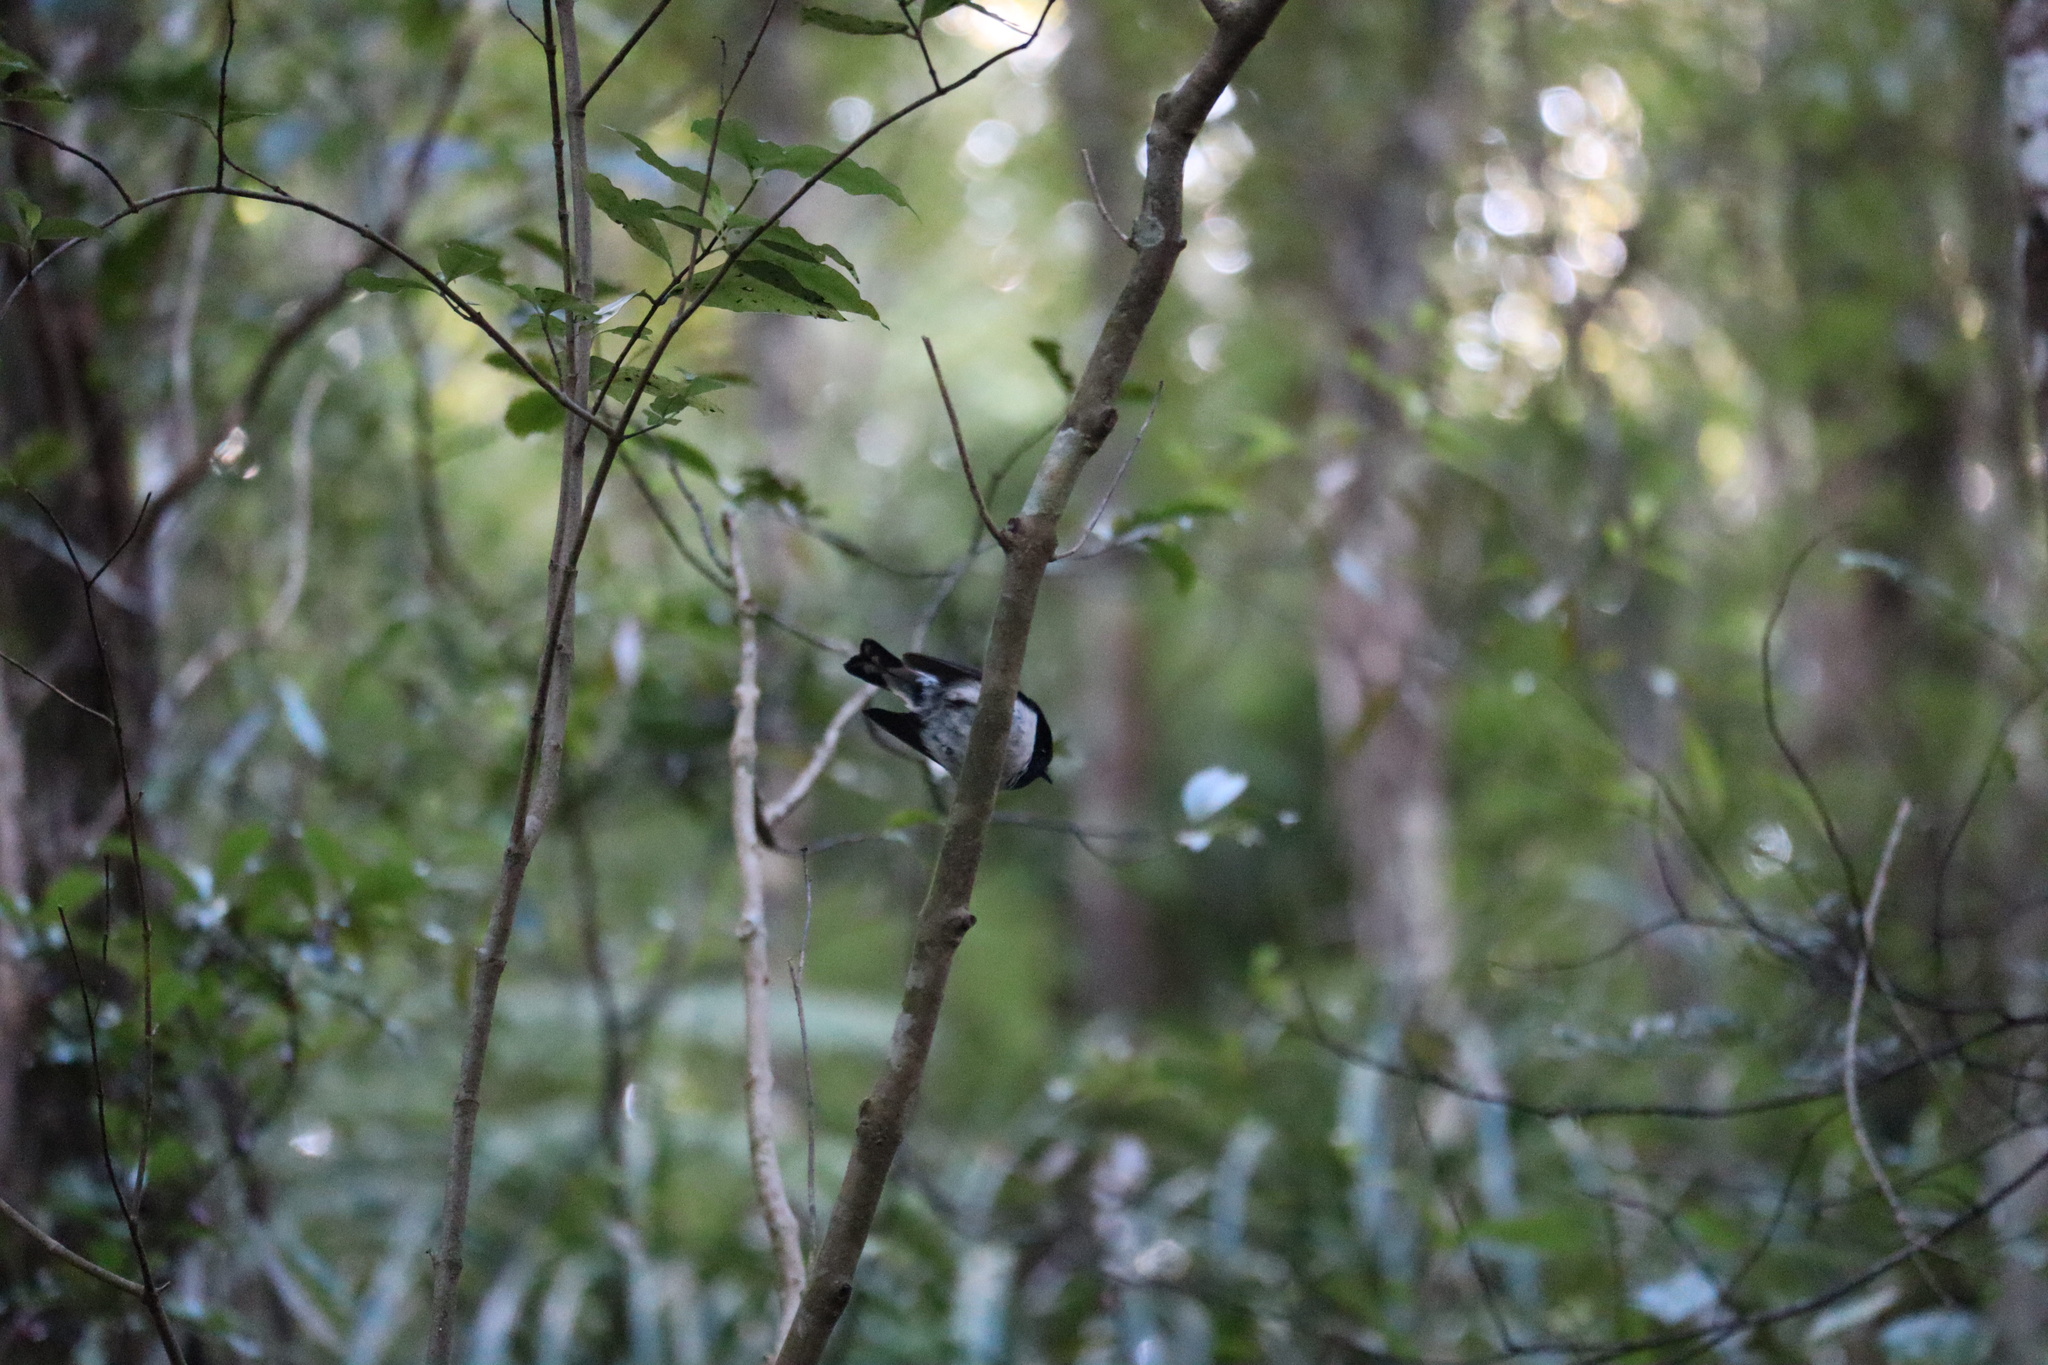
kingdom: Animalia
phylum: Chordata
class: Aves
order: Passeriformes
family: Petroicidae
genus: Petroica
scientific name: Petroica macrocephala
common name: Tomtit
